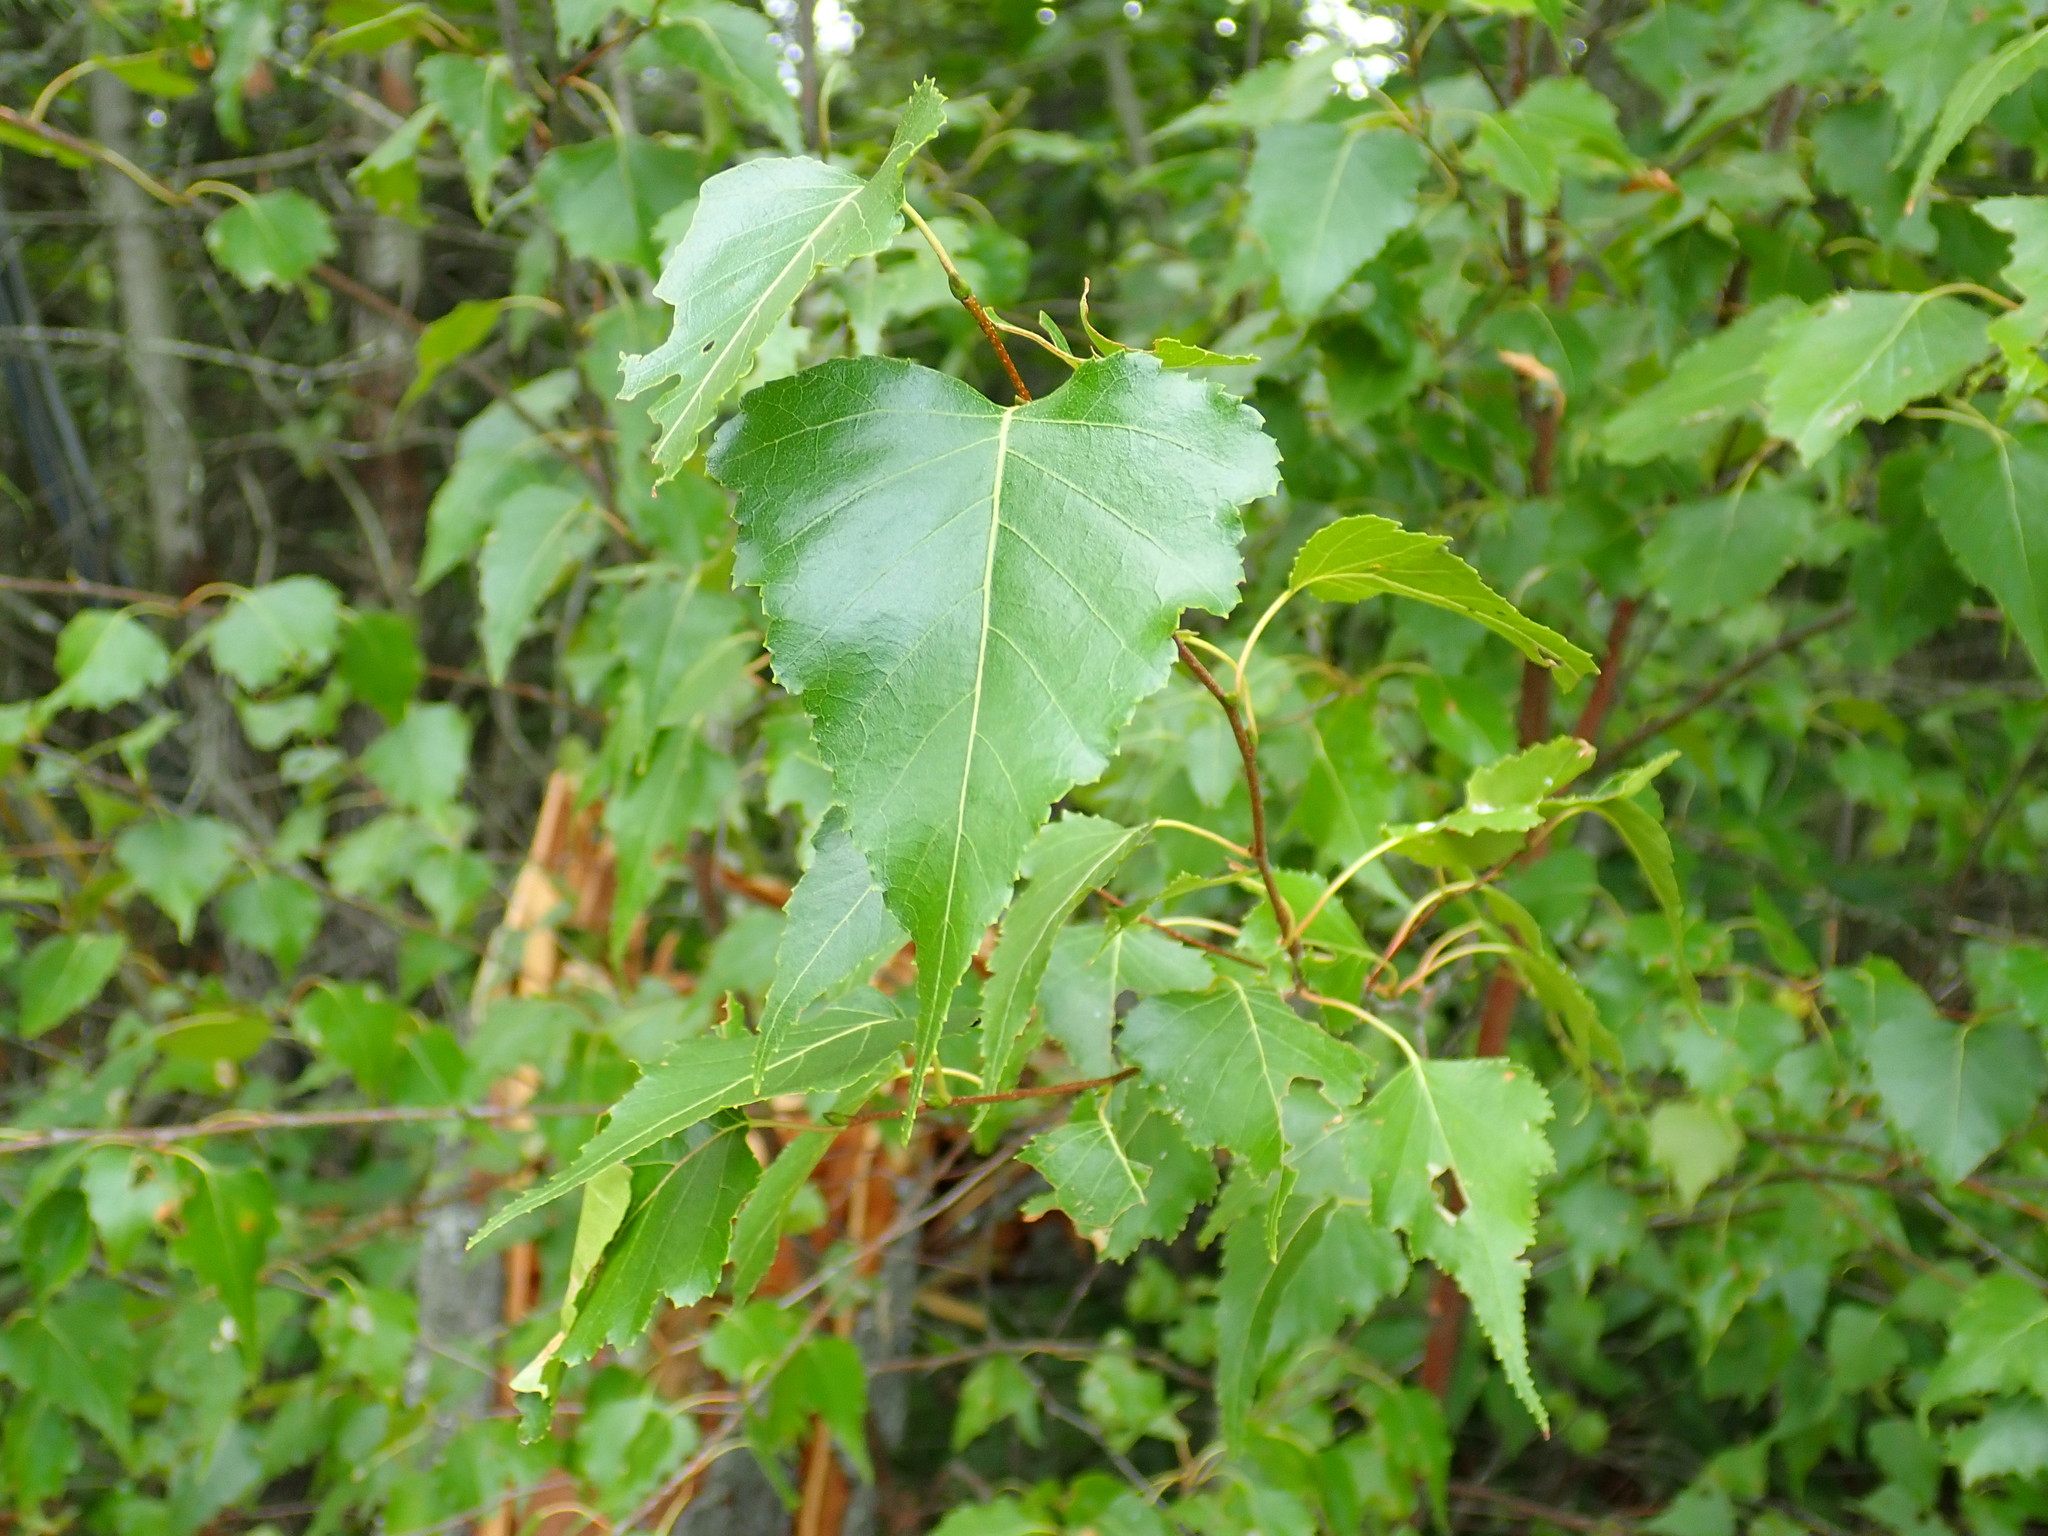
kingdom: Plantae
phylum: Tracheophyta
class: Magnoliopsida
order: Fagales
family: Betulaceae
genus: Betula
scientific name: Betula populifolia
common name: Fire birch
